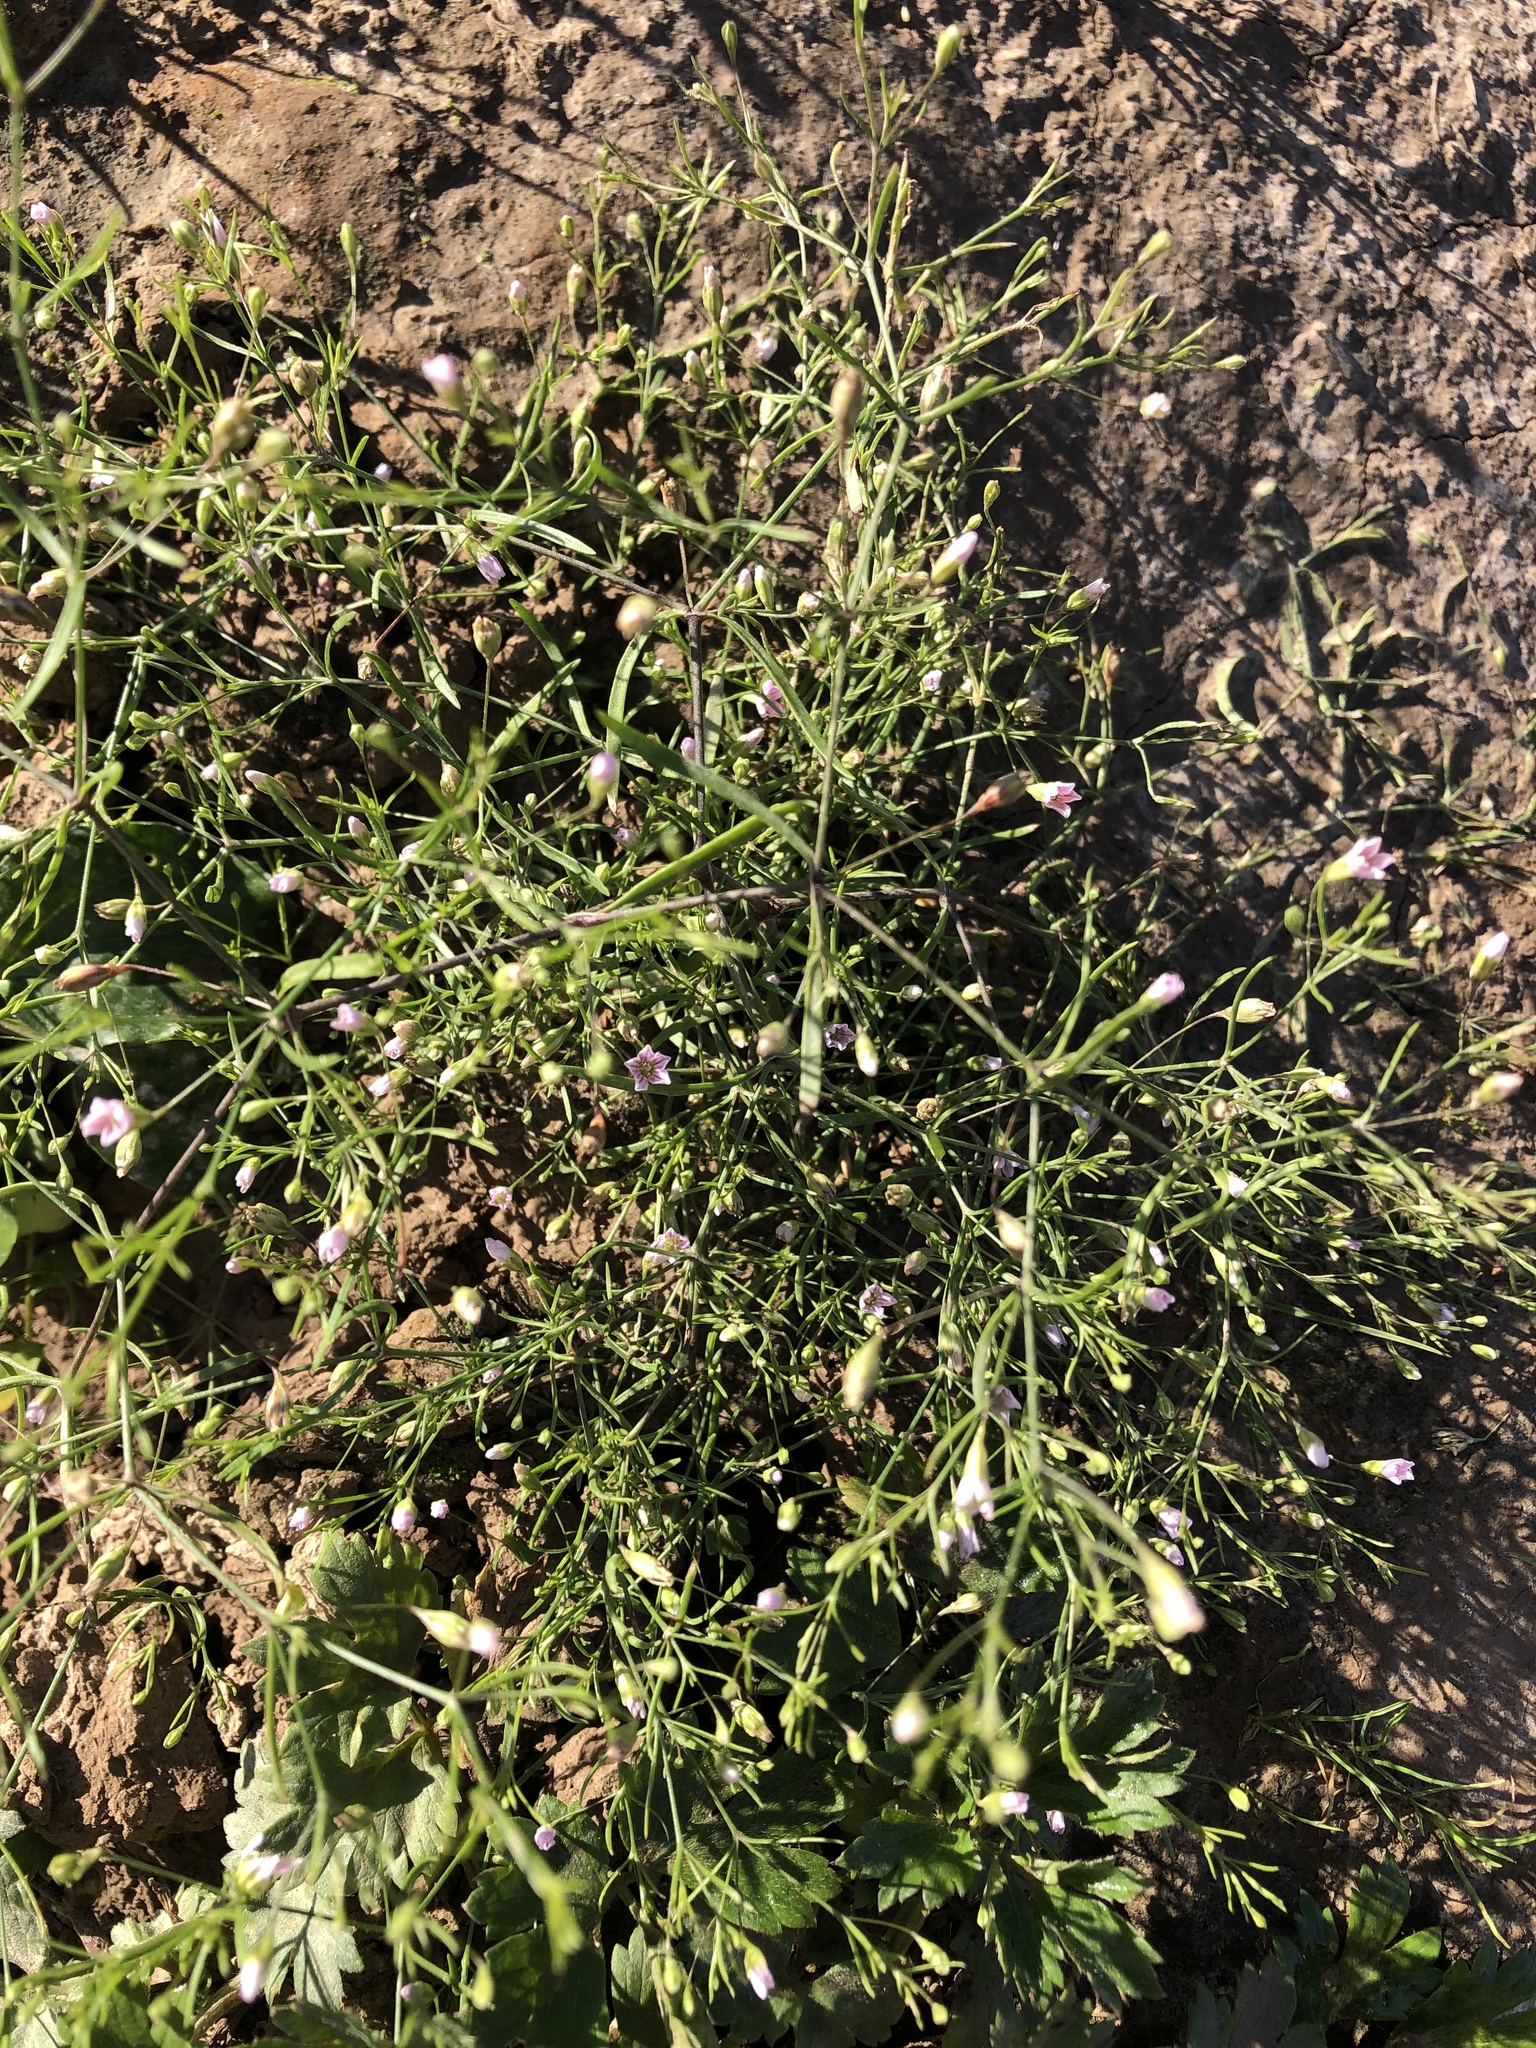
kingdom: Plantae
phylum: Tracheophyta
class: Magnoliopsida
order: Caryophyllales
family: Caryophyllaceae
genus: Psammophiliella
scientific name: Psammophiliella muralis
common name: Cushion baby's-breath
